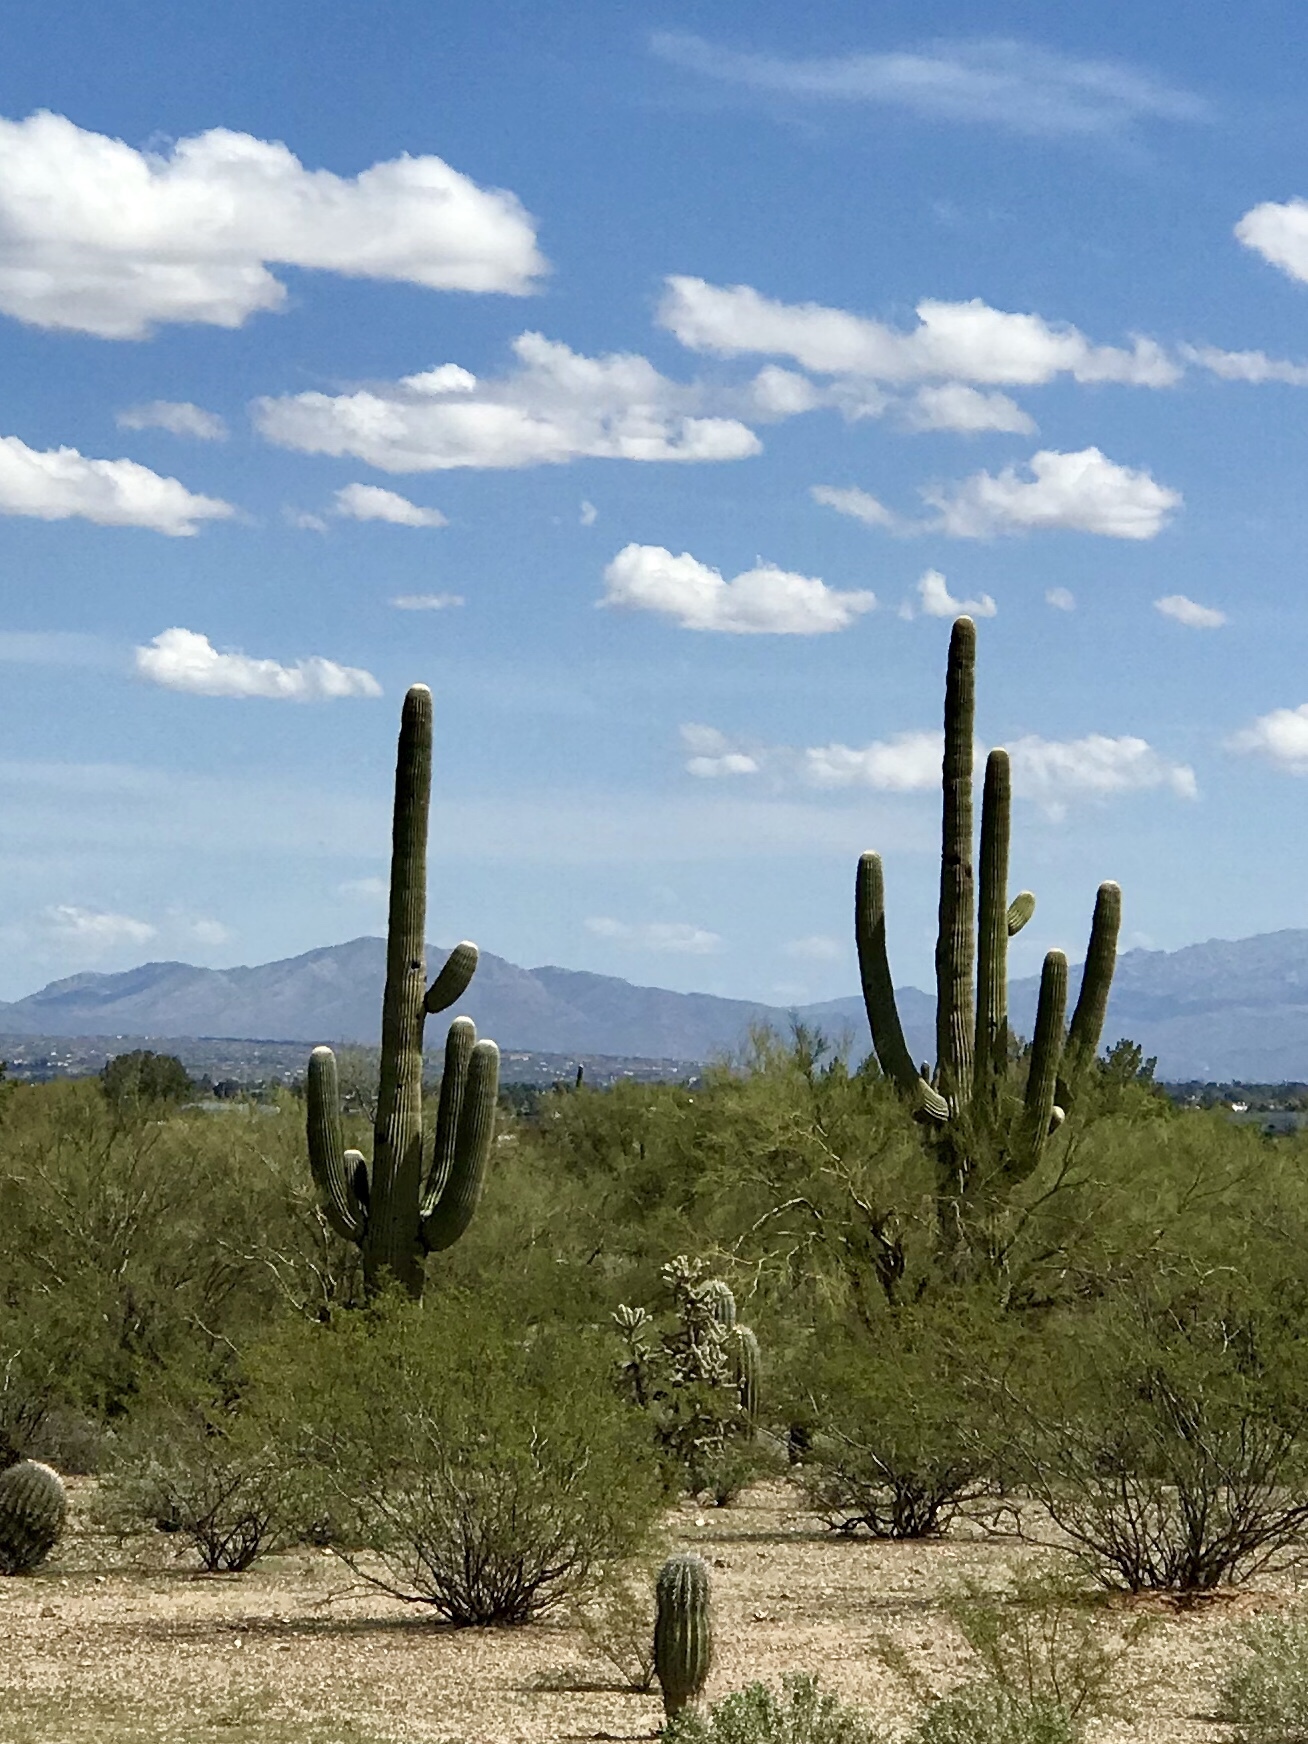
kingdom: Plantae
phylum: Tracheophyta
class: Magnoliopsida
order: Caryophyllales
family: Cactaceae
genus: Carnegiea
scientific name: Carnegiea gigantea
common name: Saguaro
